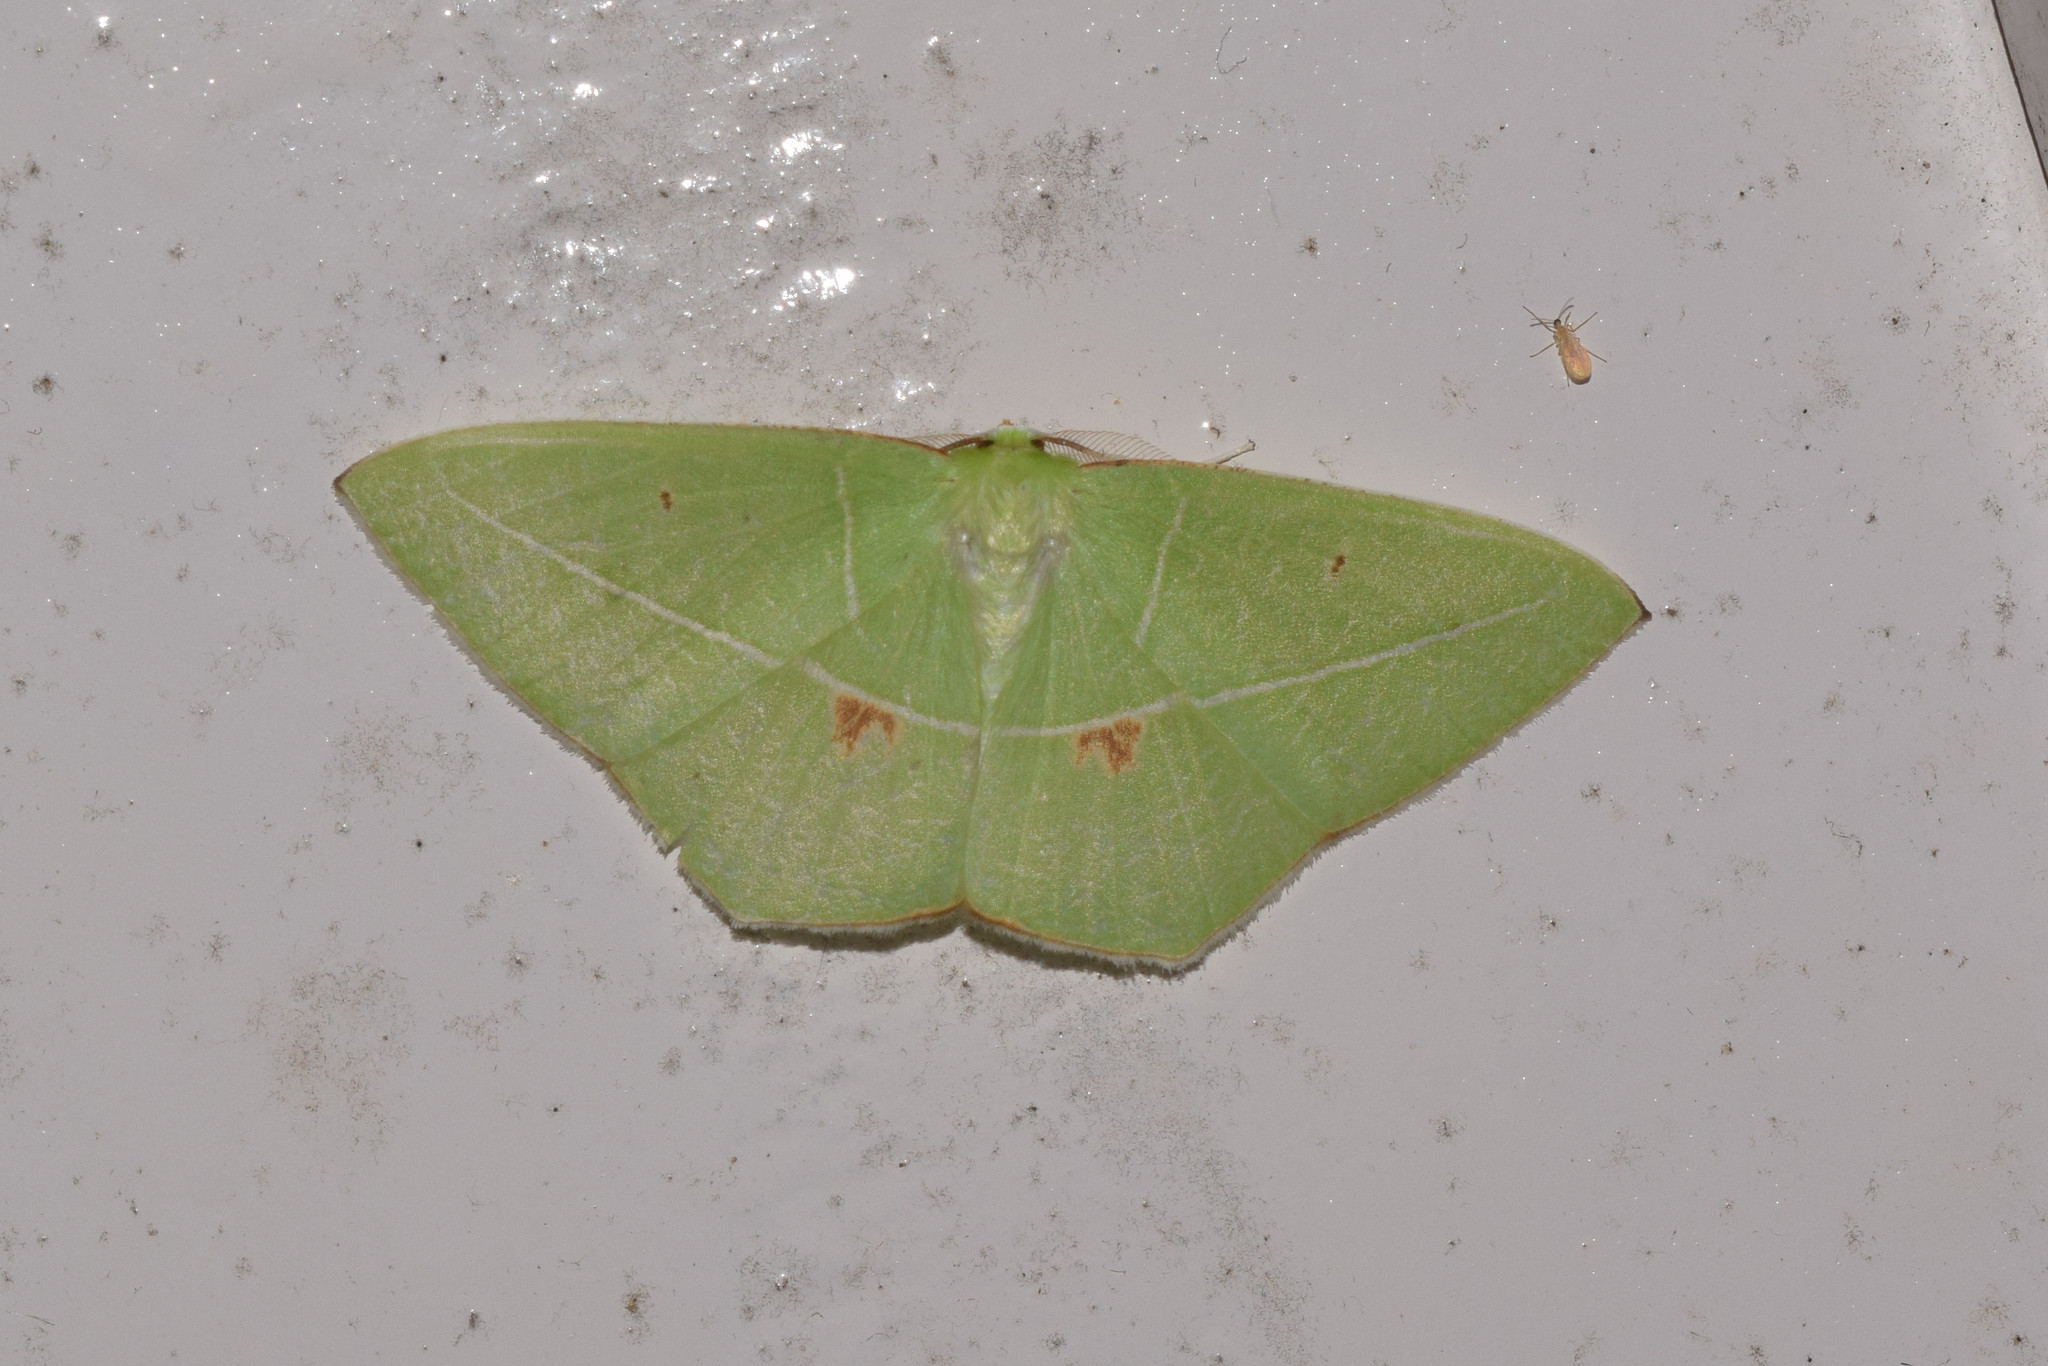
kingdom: Animalia
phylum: Arthropoda
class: Insecta
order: Lepidoptera
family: Geometridae
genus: Tanaoctenia
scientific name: Tanaoctenia haliaria
